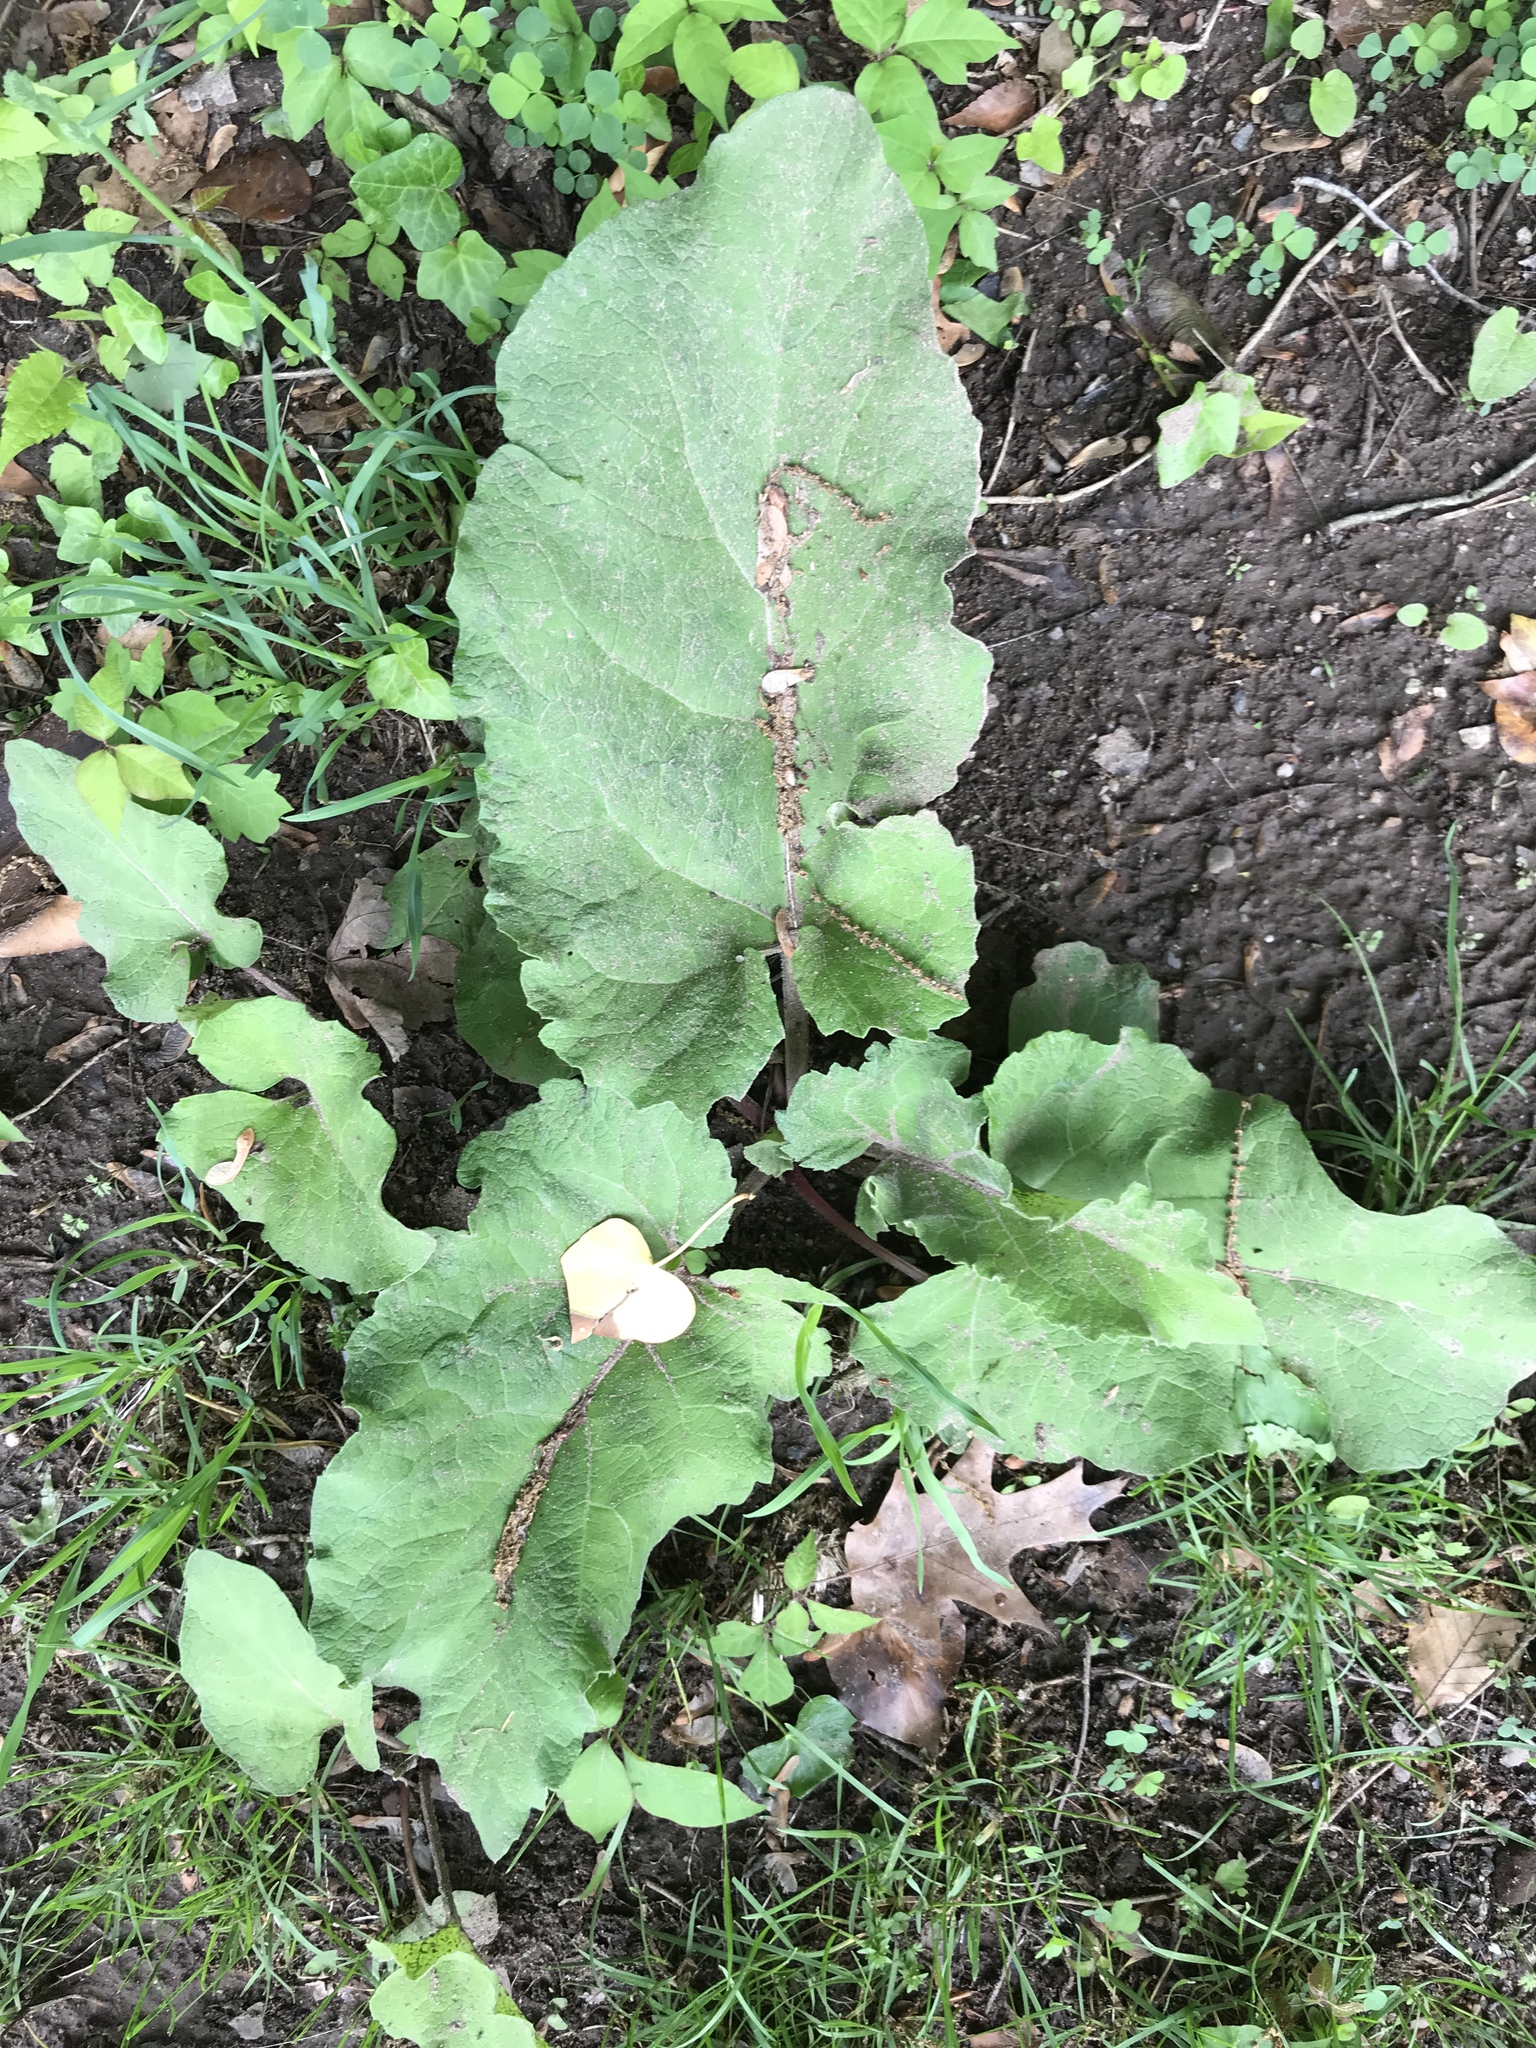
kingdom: Plantae
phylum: Tracheophyta
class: Magnoliopsida
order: Asterales
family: Asteraceae
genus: Arctium
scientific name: Arctium
